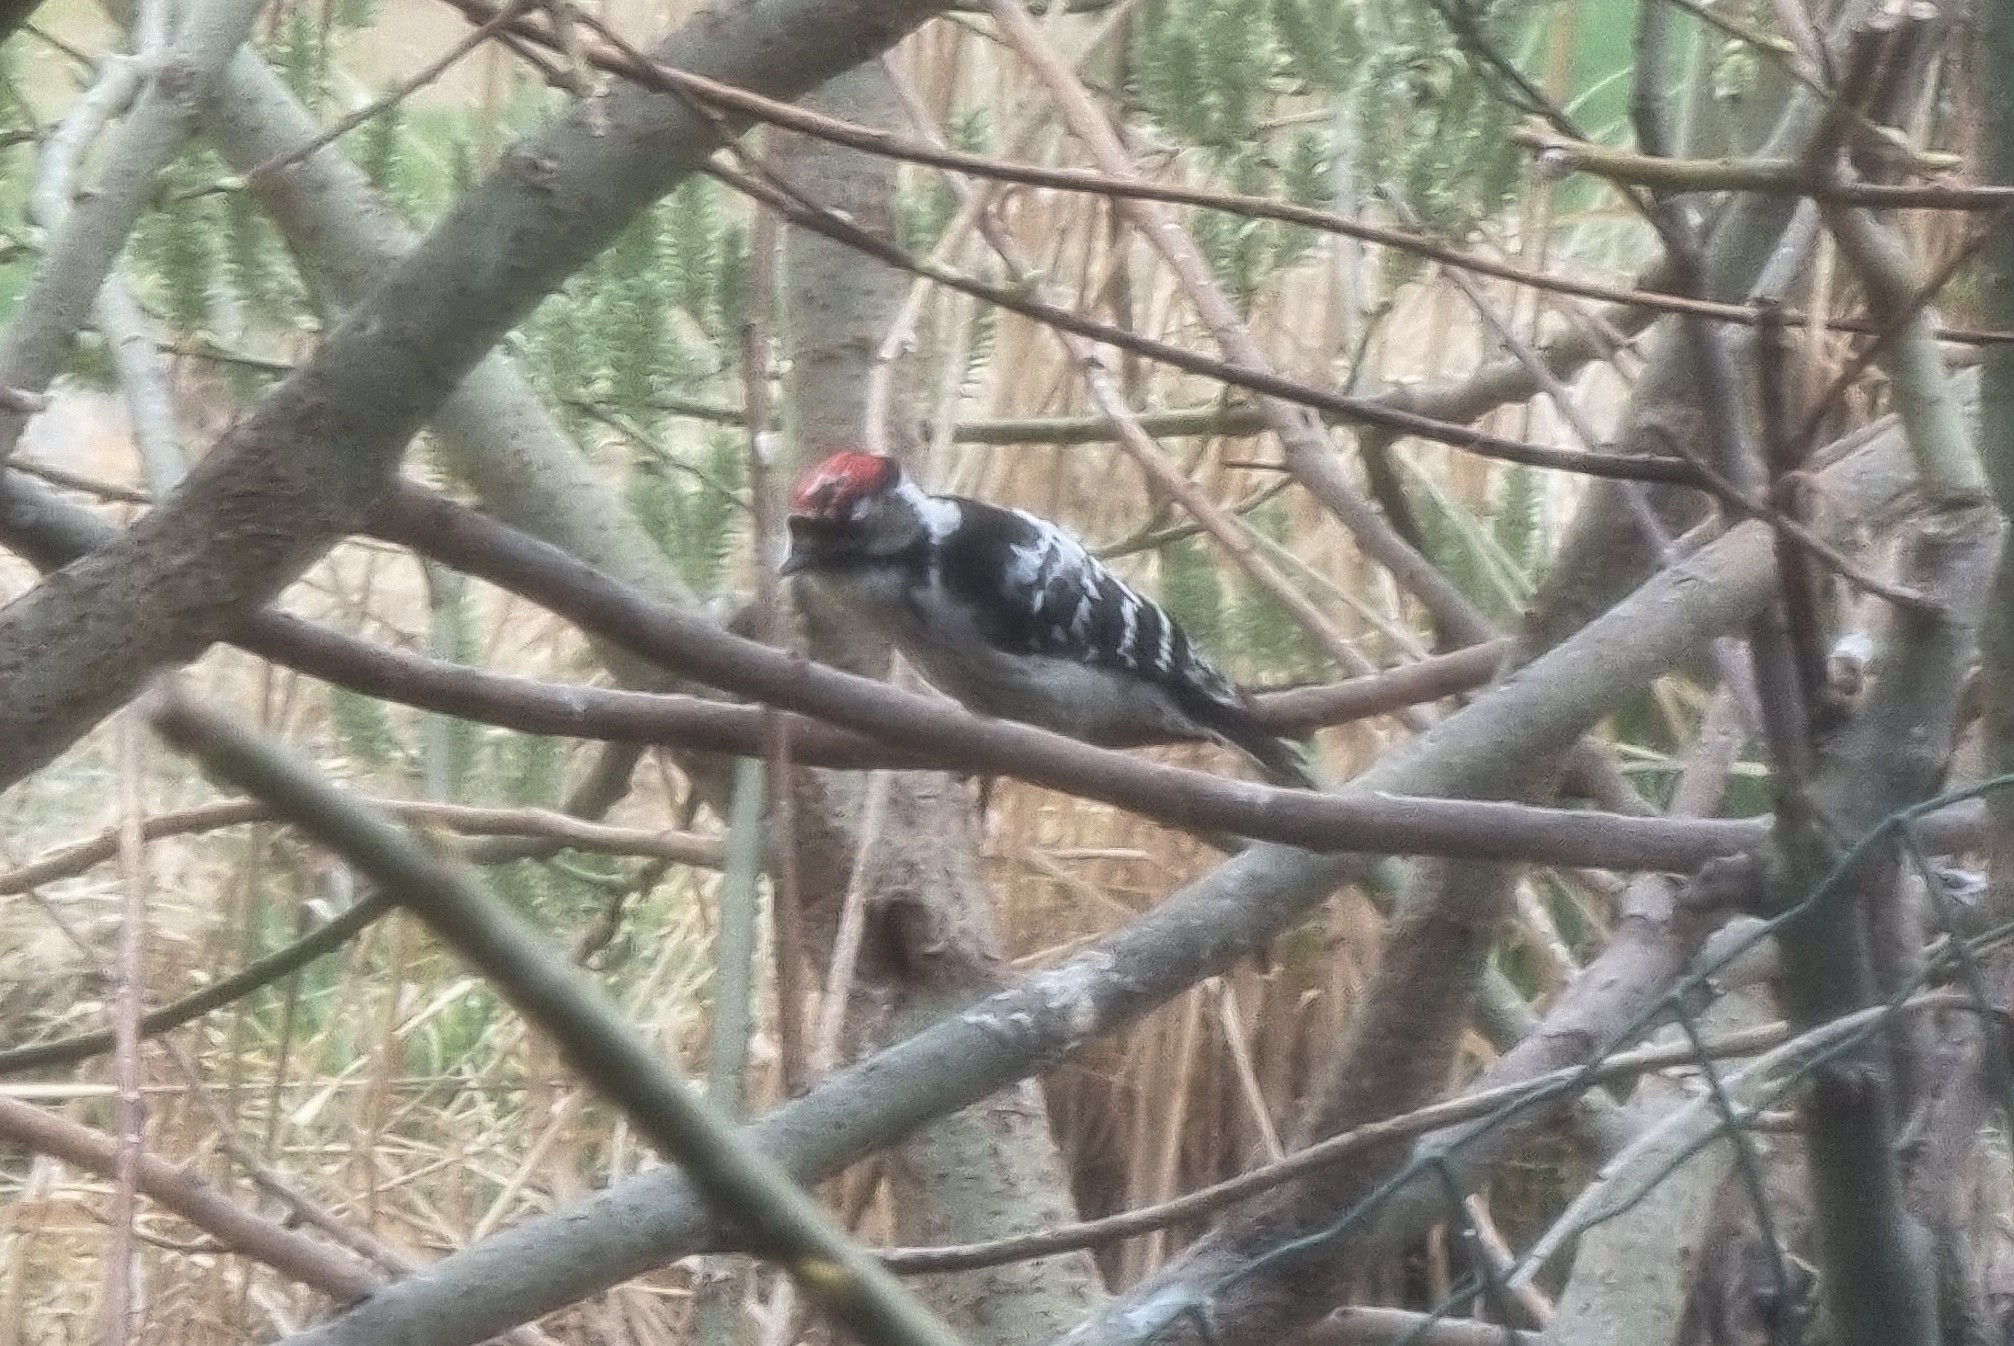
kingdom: Animalia
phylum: Chordata
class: Aves
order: Piciformes
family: Picidae
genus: Dryobates
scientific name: Dryobates minor
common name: Lesser spotted woodpecker
